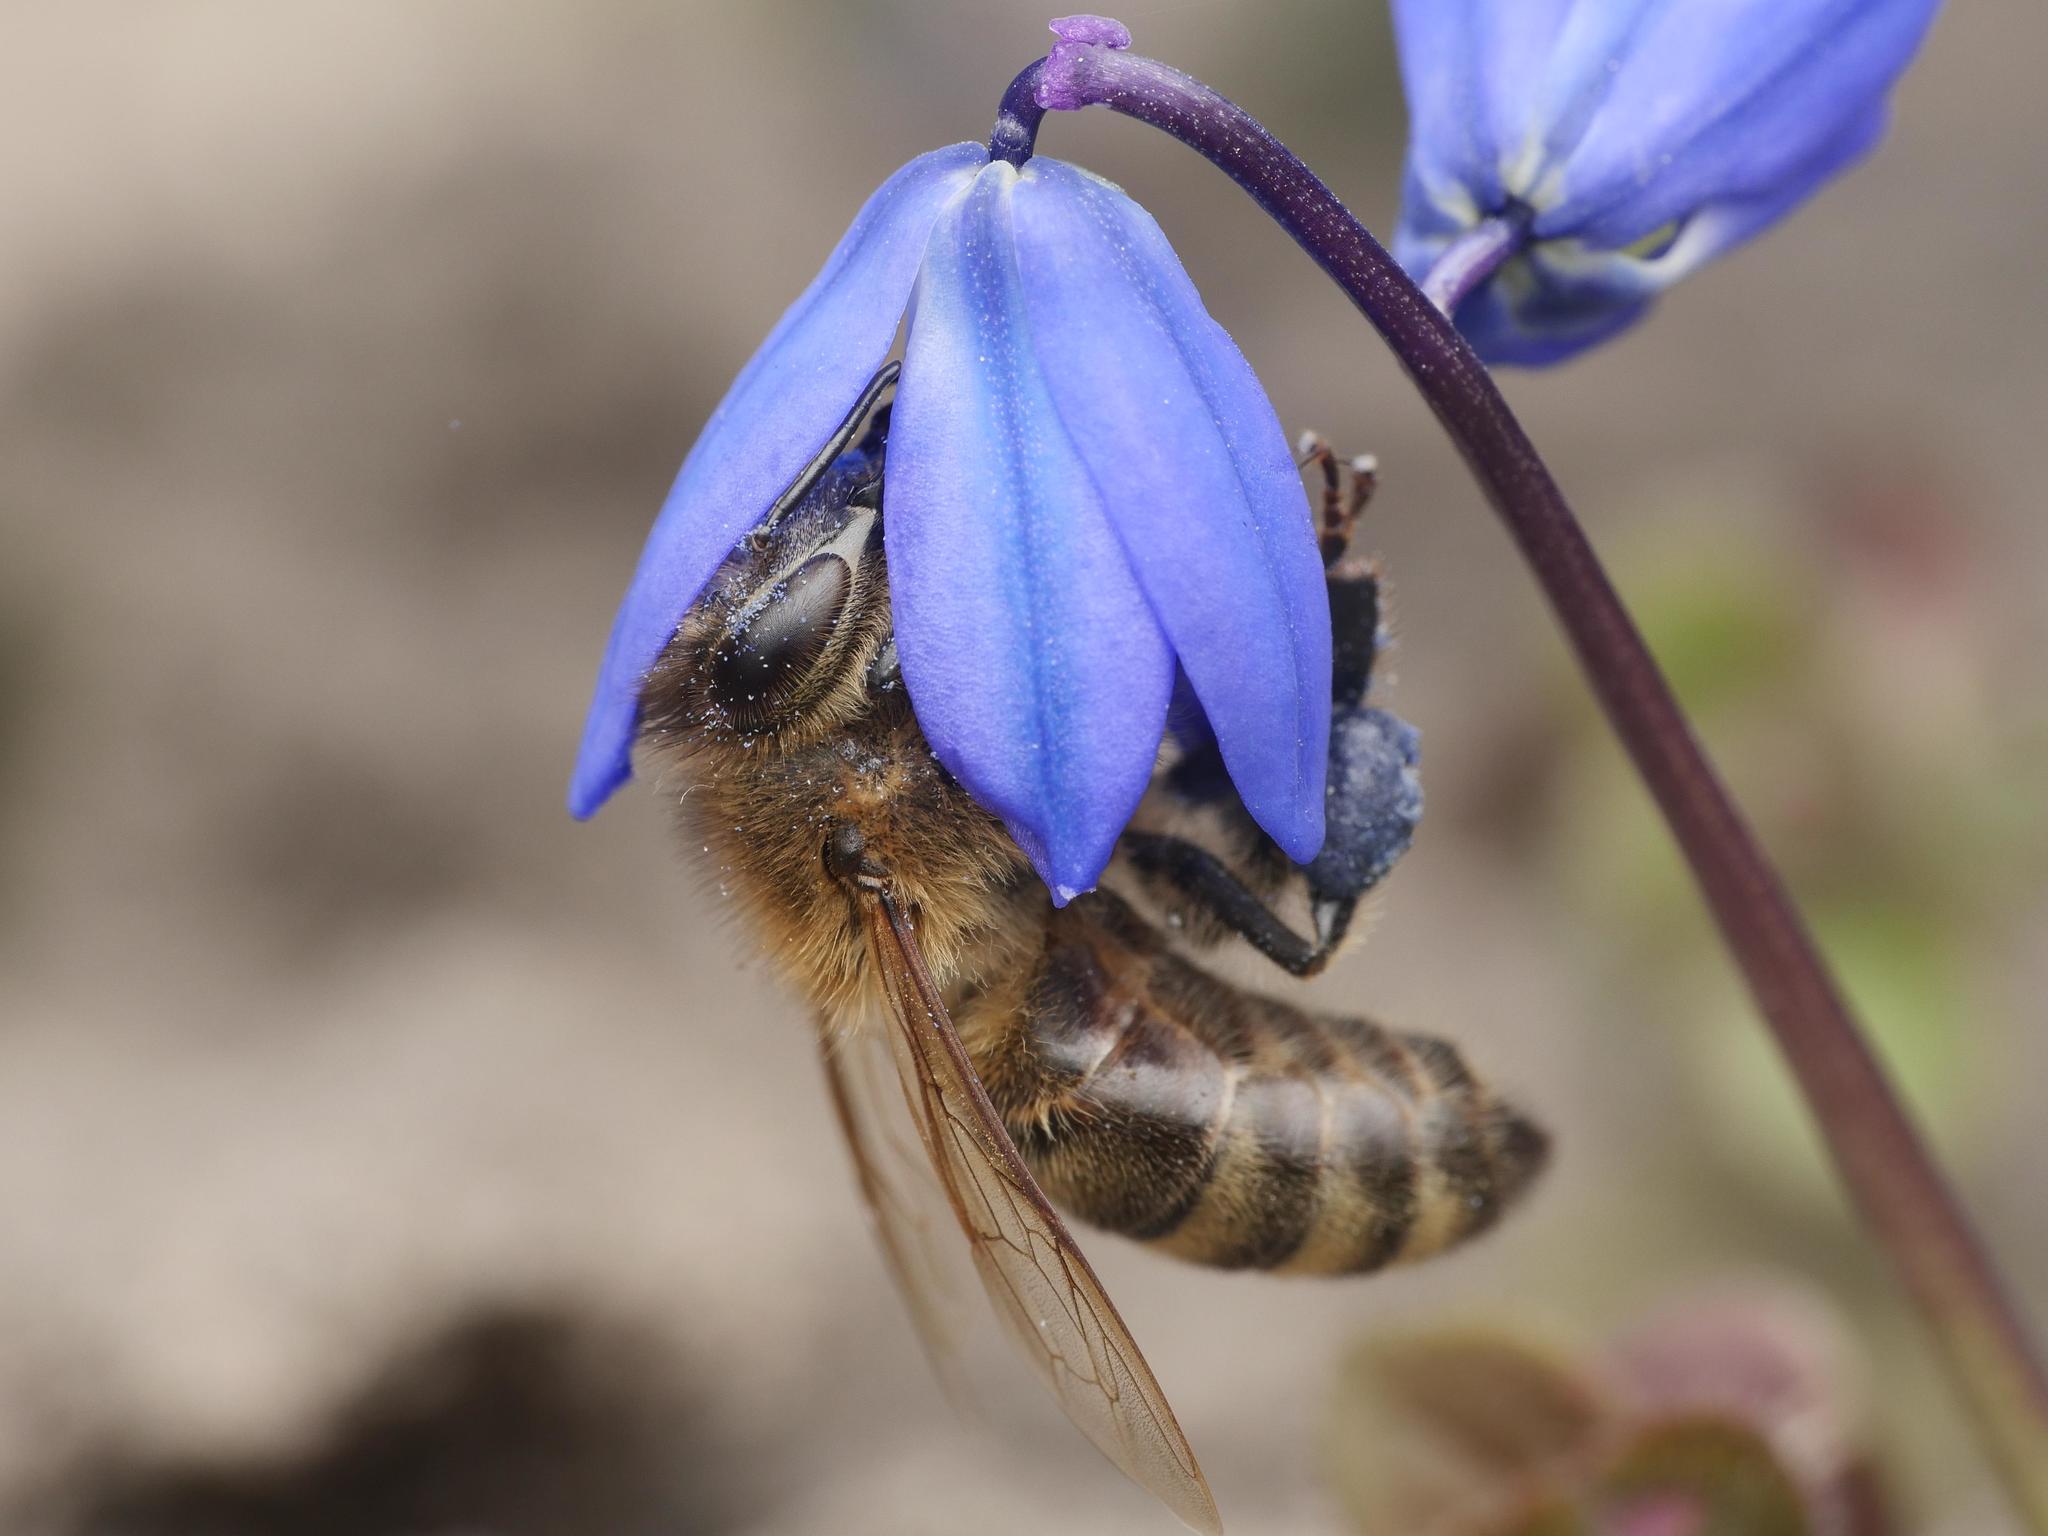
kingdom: Animalia
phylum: Arthropoda
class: Insecta
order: Hymenoptera
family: Apidae
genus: Apis
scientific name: Apis mellifera
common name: Honey bee
